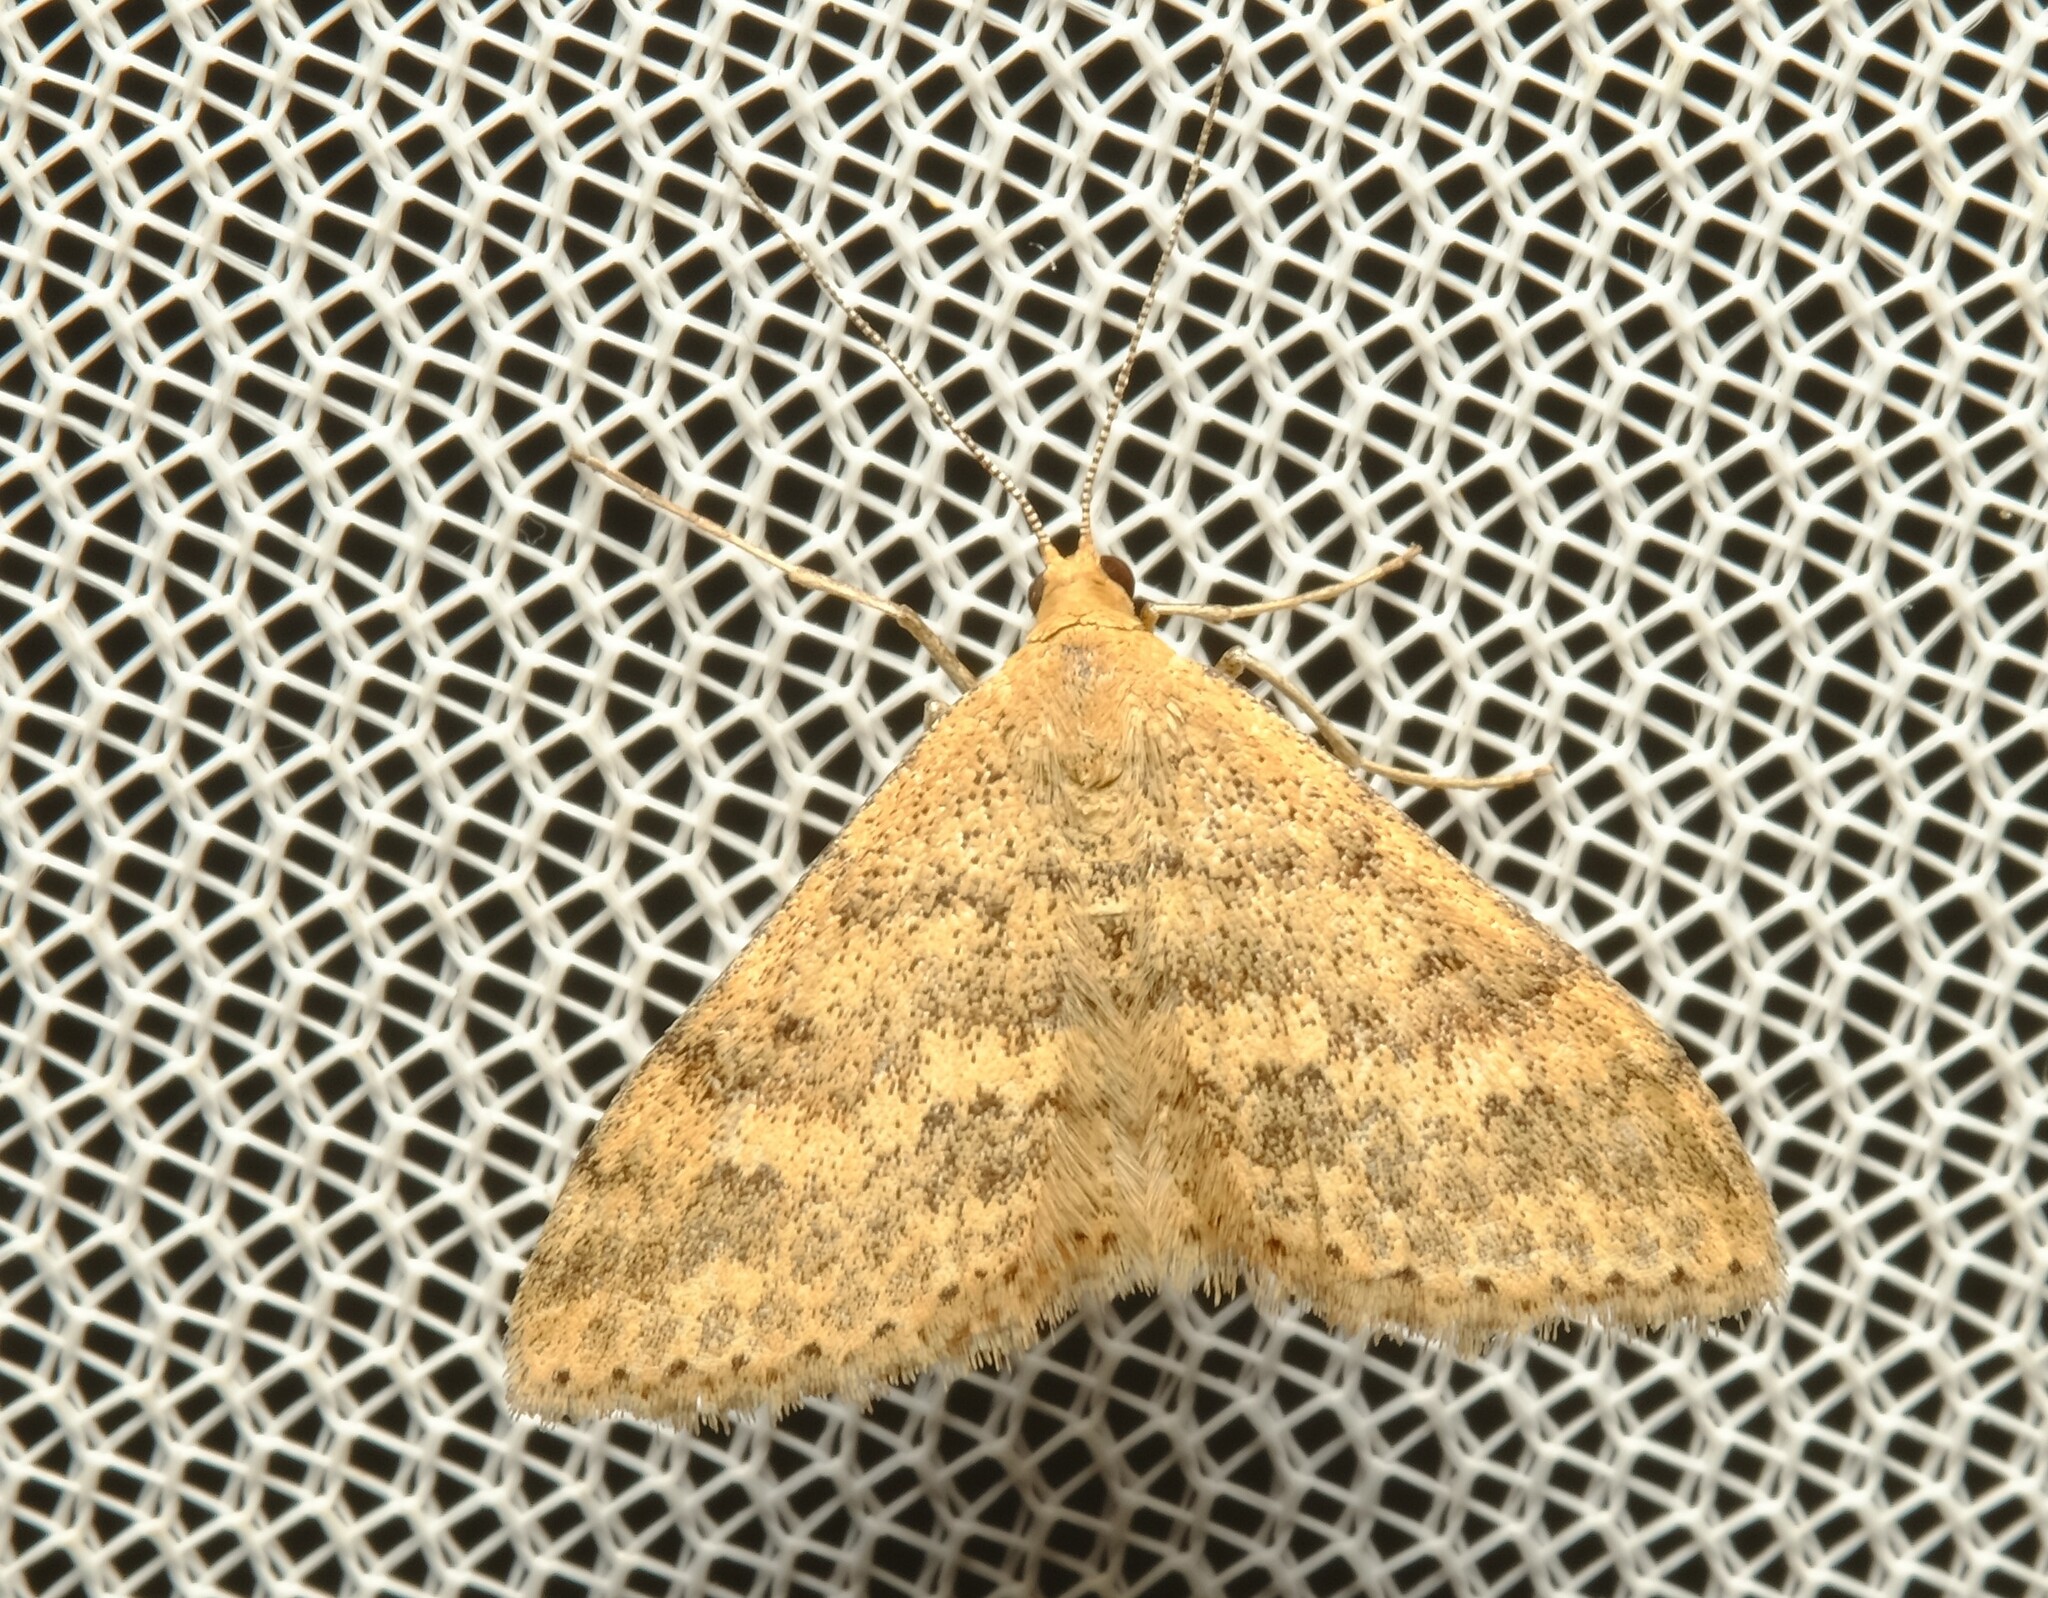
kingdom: Animalia
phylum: Arthropoda
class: Insecta
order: Lepidoptera
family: Geometridae
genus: Scopula
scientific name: Scopula rubraria
